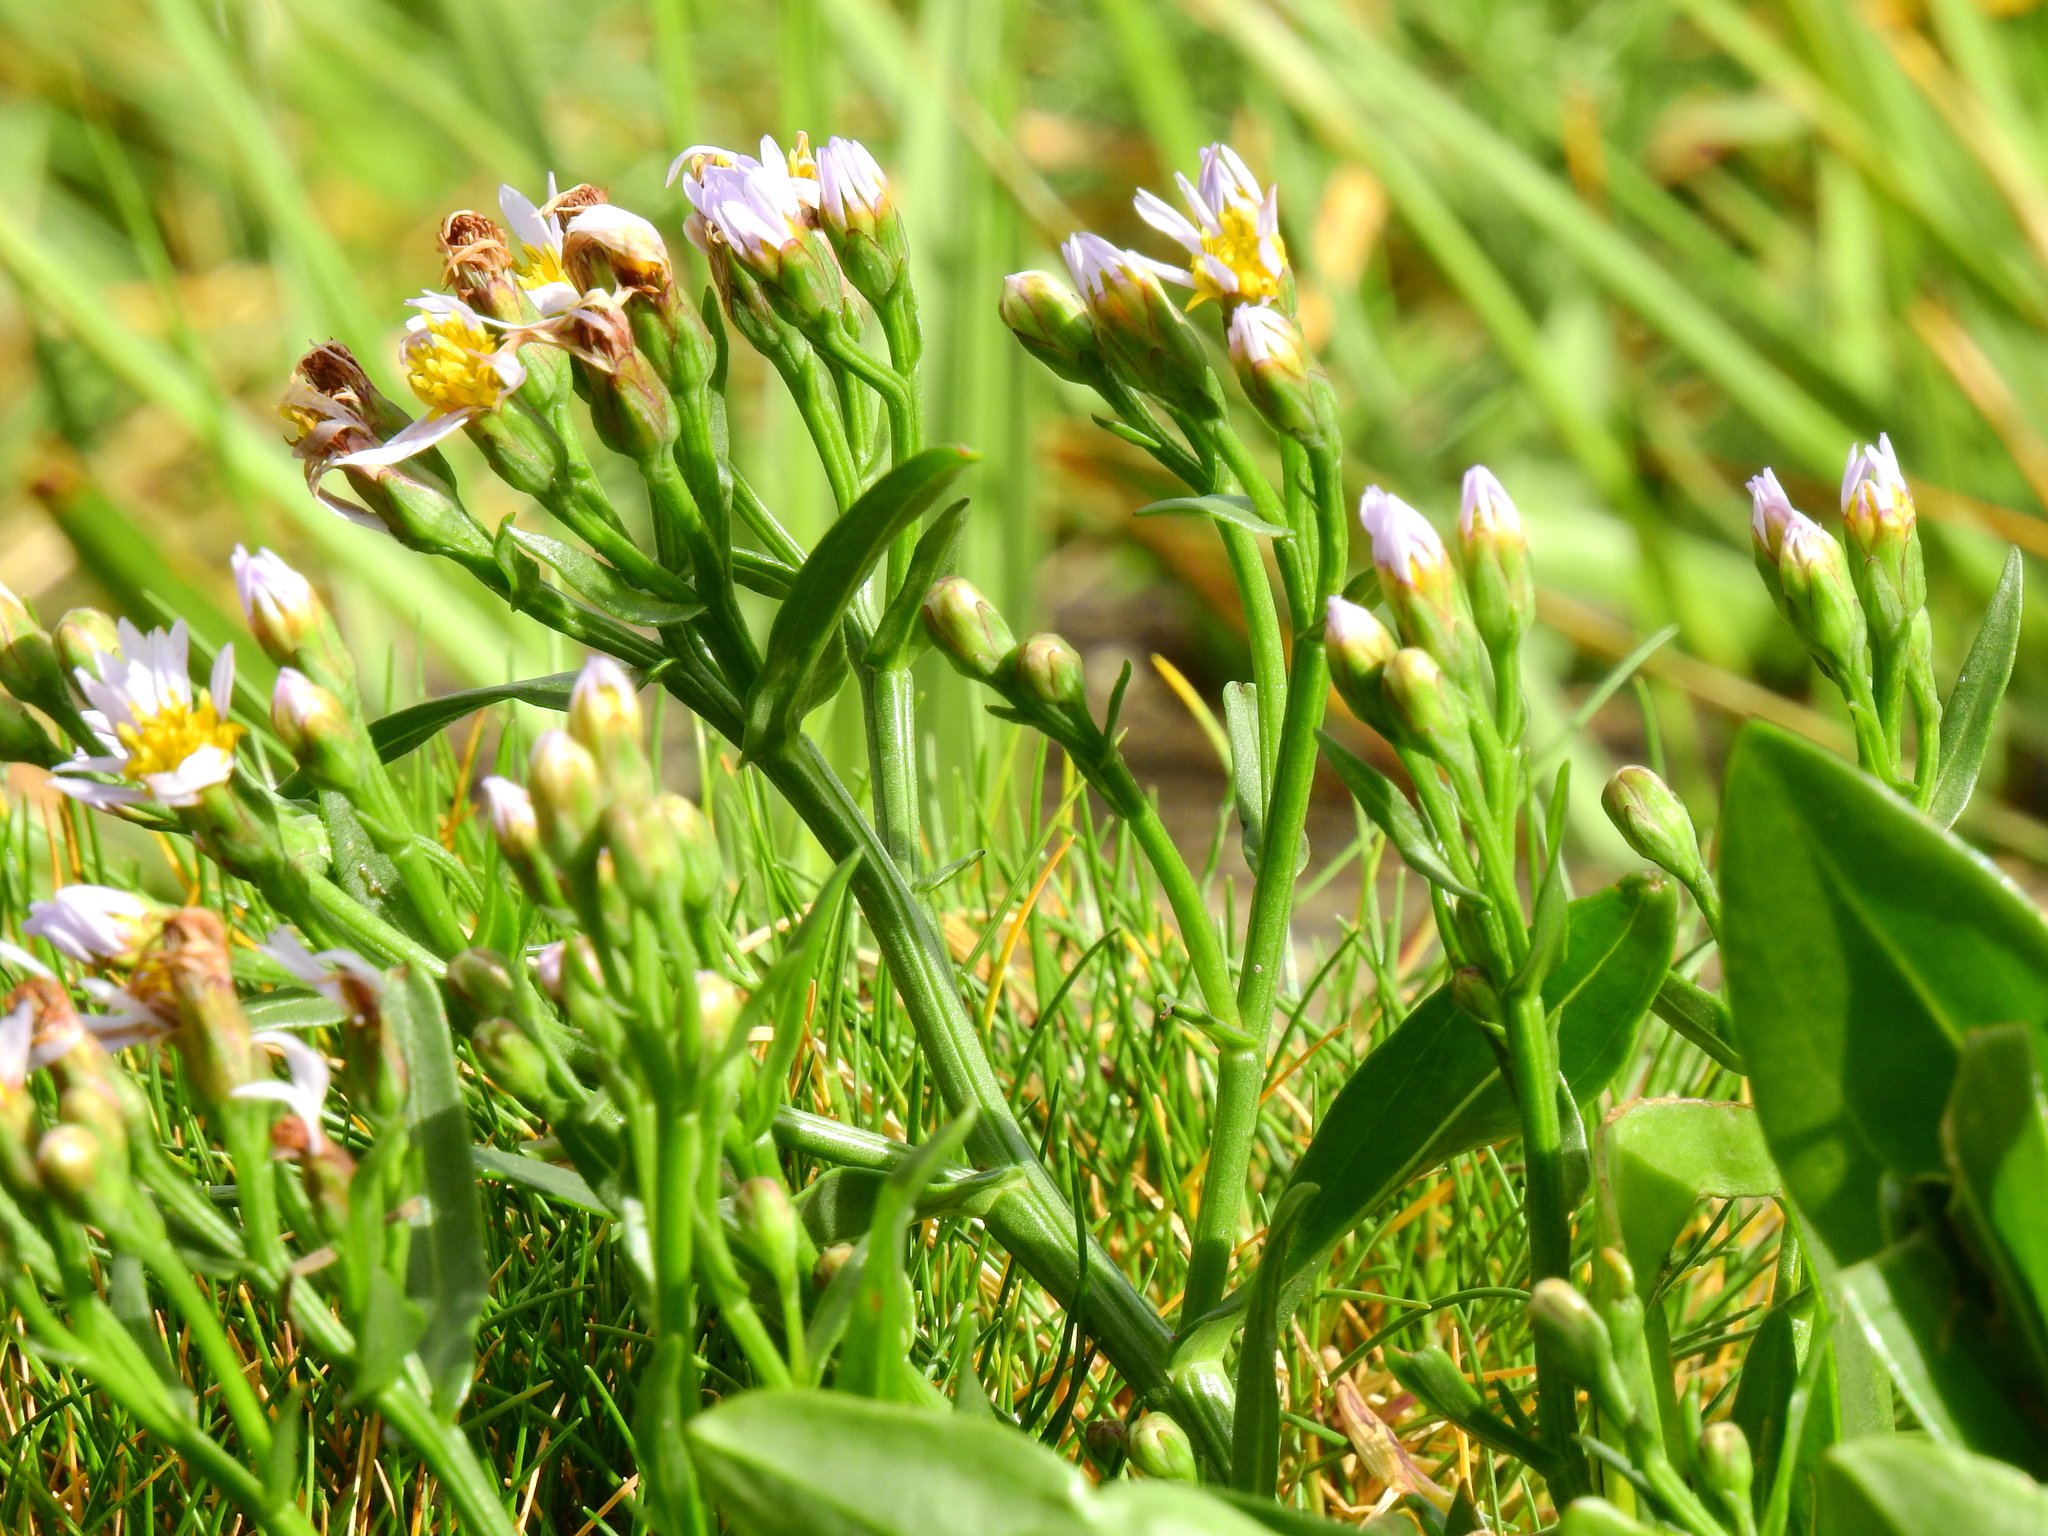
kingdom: Plantae
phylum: Tracheophyta
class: Magnoliopsida
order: Asterales
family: Asteraceae
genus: Tripolium
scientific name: Tripolium pannonicum
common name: Sea aster
